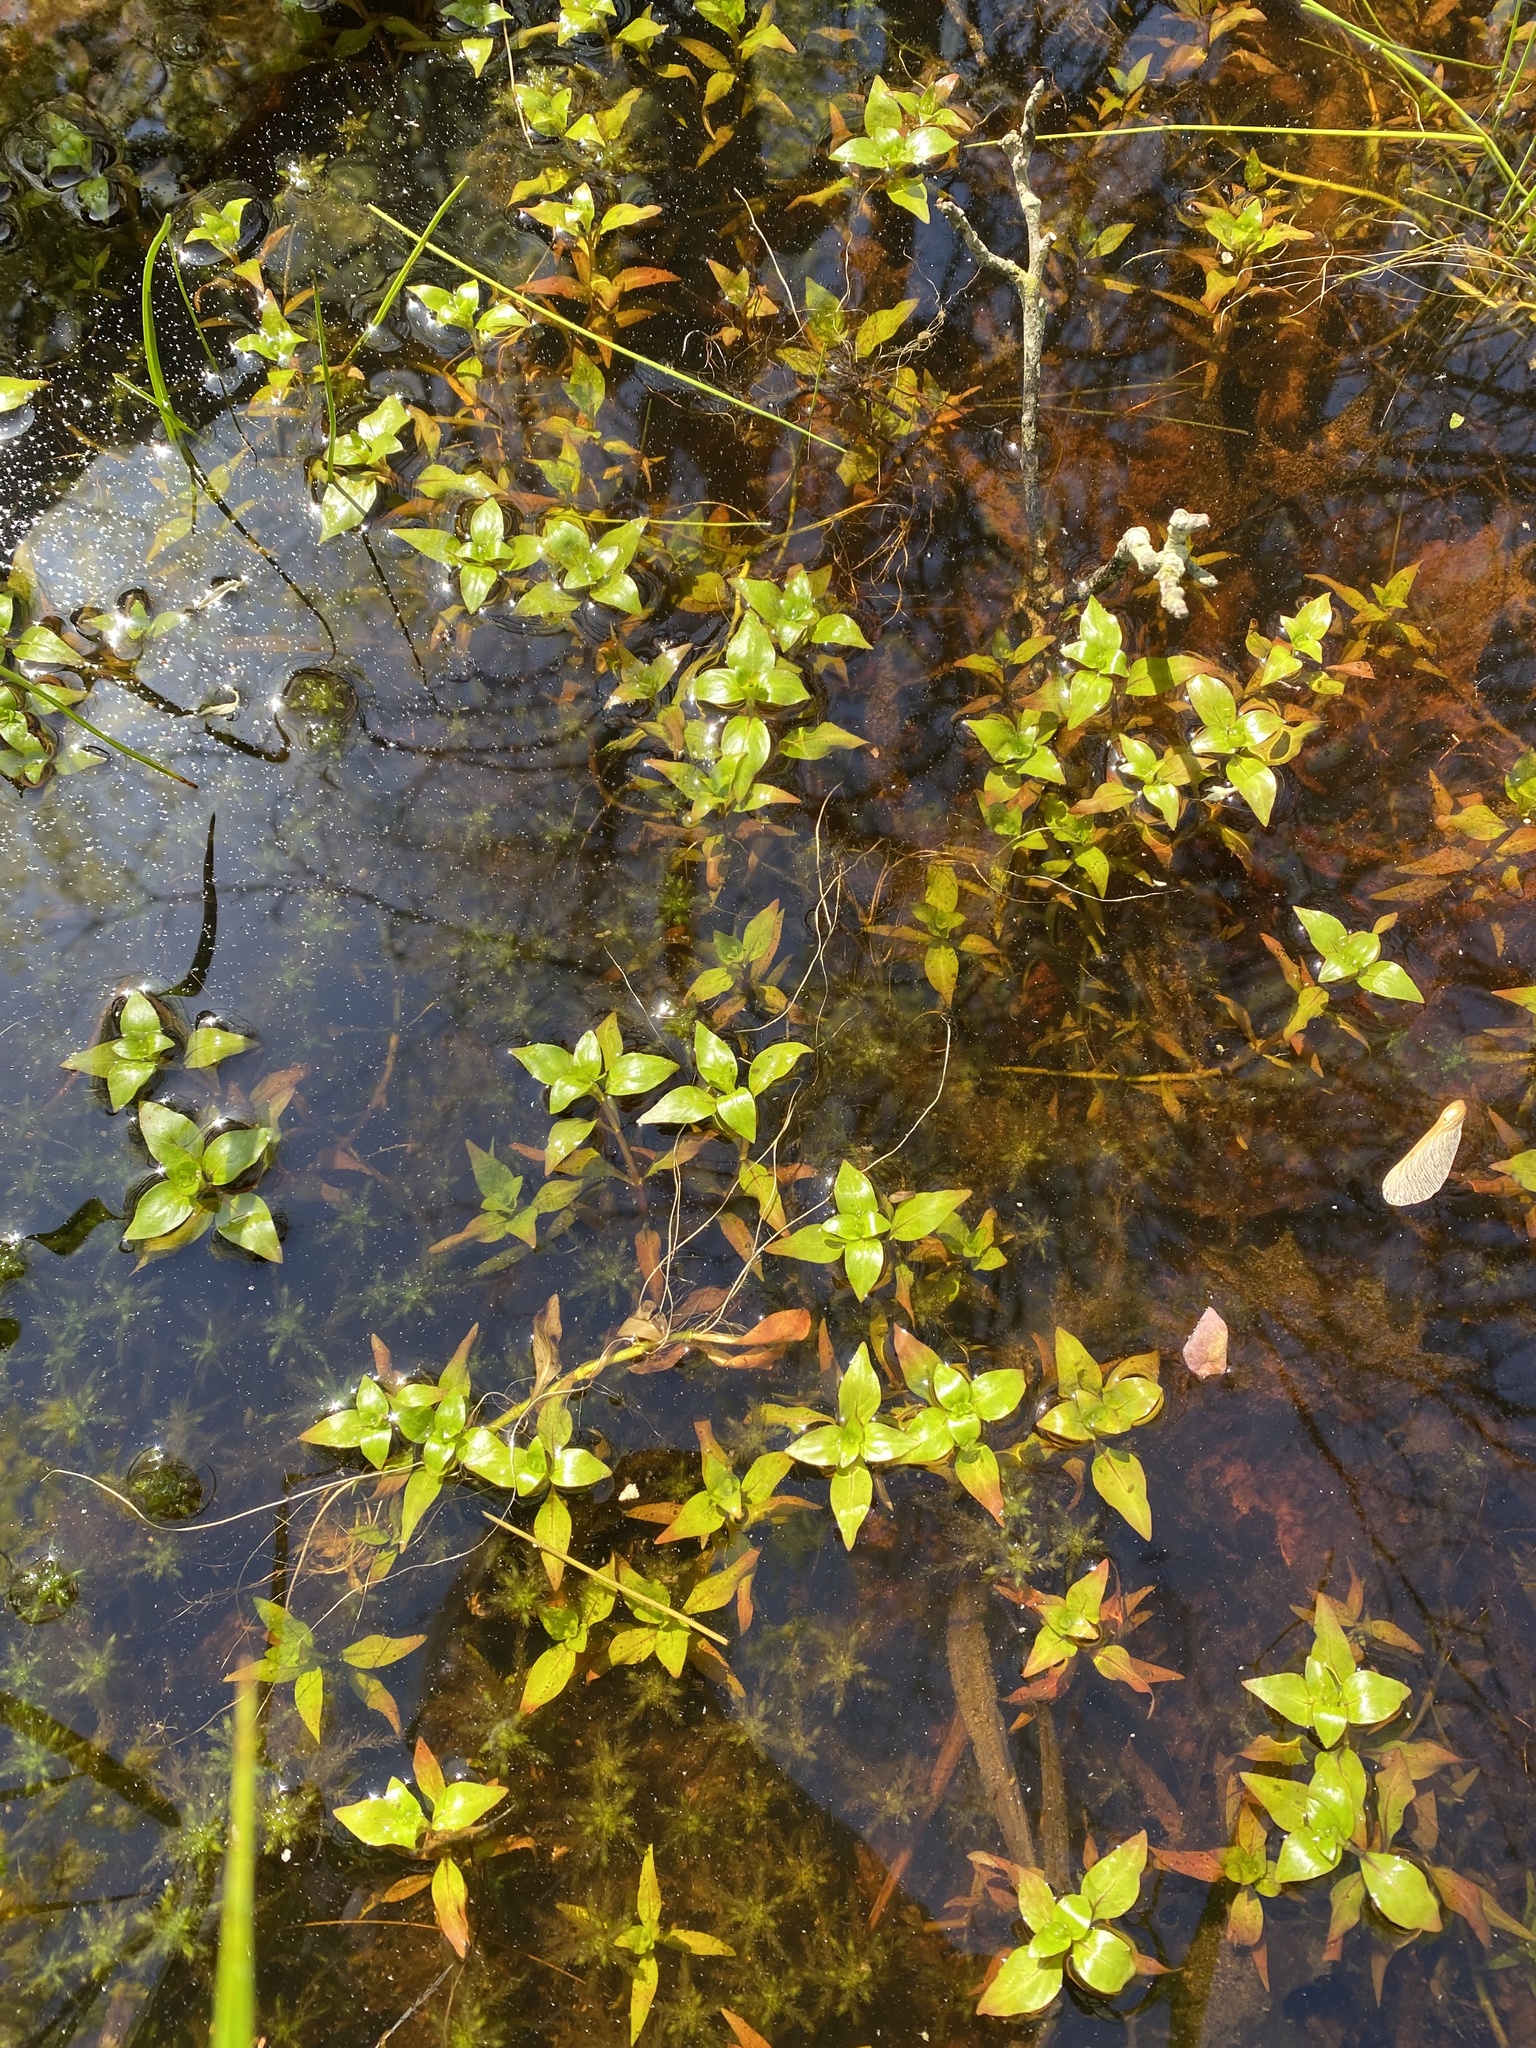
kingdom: Plantae
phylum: Tracheophyta
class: Magnoliopsida
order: Myrtales
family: Onagraceae
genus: Ludwigia
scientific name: Ludwigia palustris
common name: Hampshire-purslane
